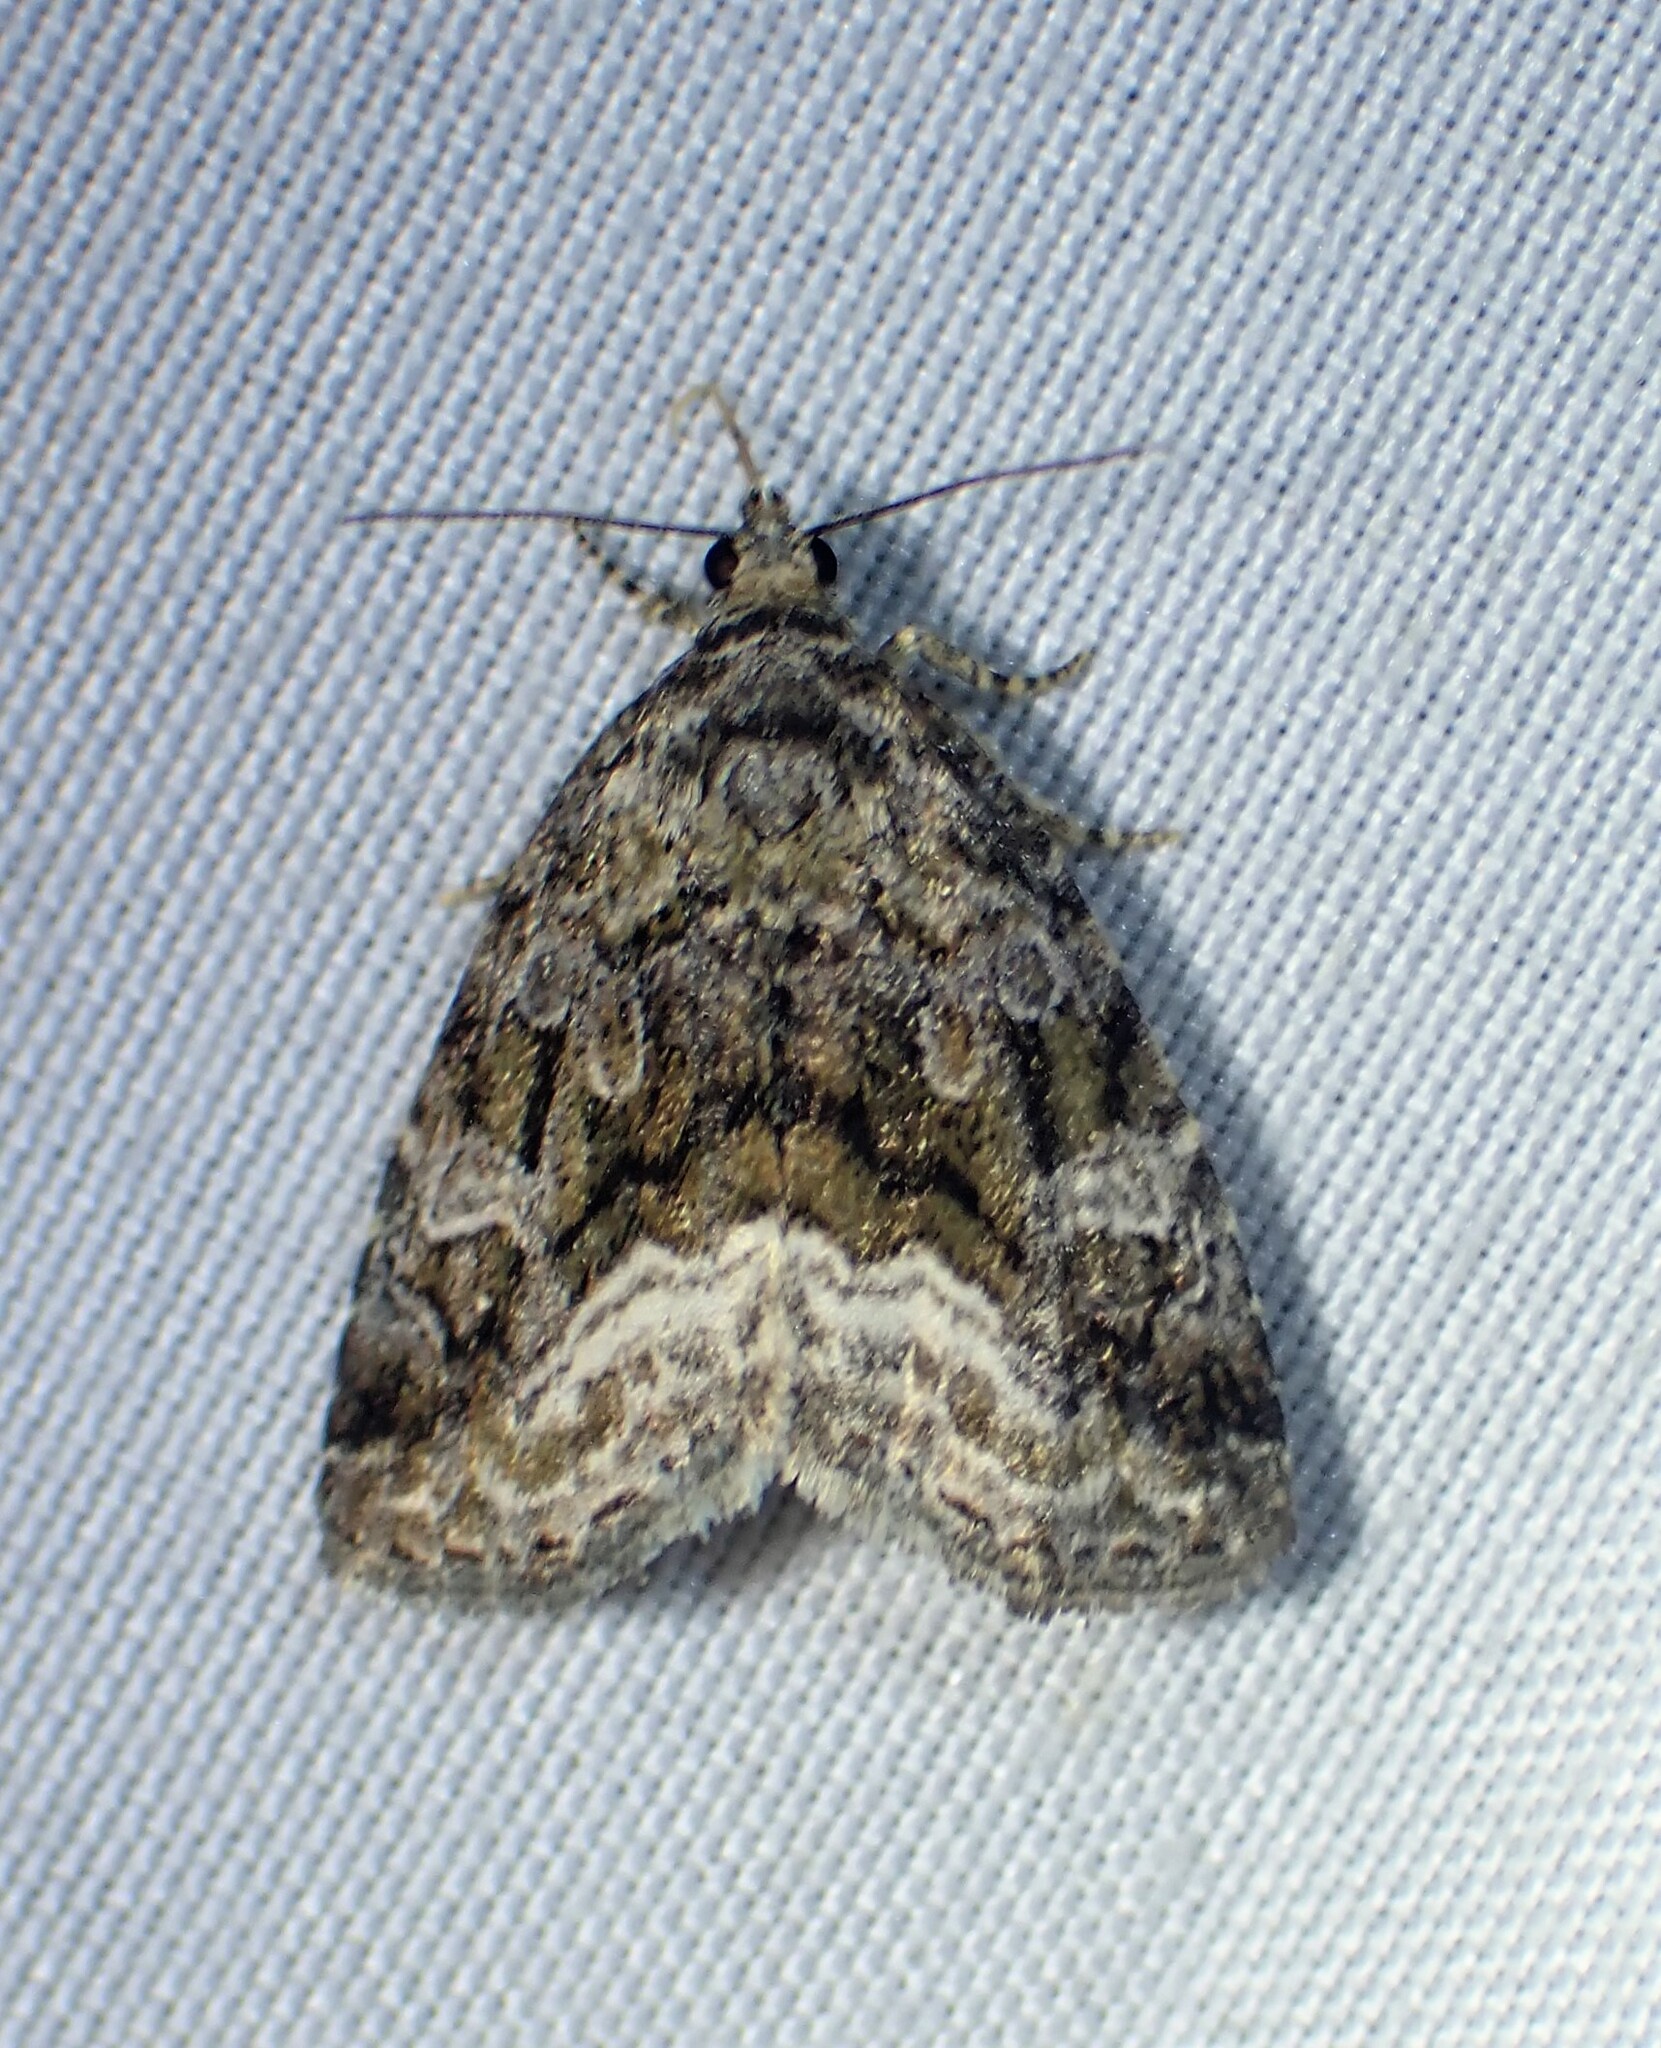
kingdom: Animalia
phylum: Arthropoda
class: Insecta
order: Lepidoptera
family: Noctuidae
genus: Protodeltote
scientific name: Protodeltote muscosula
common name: Large mossy glyph
